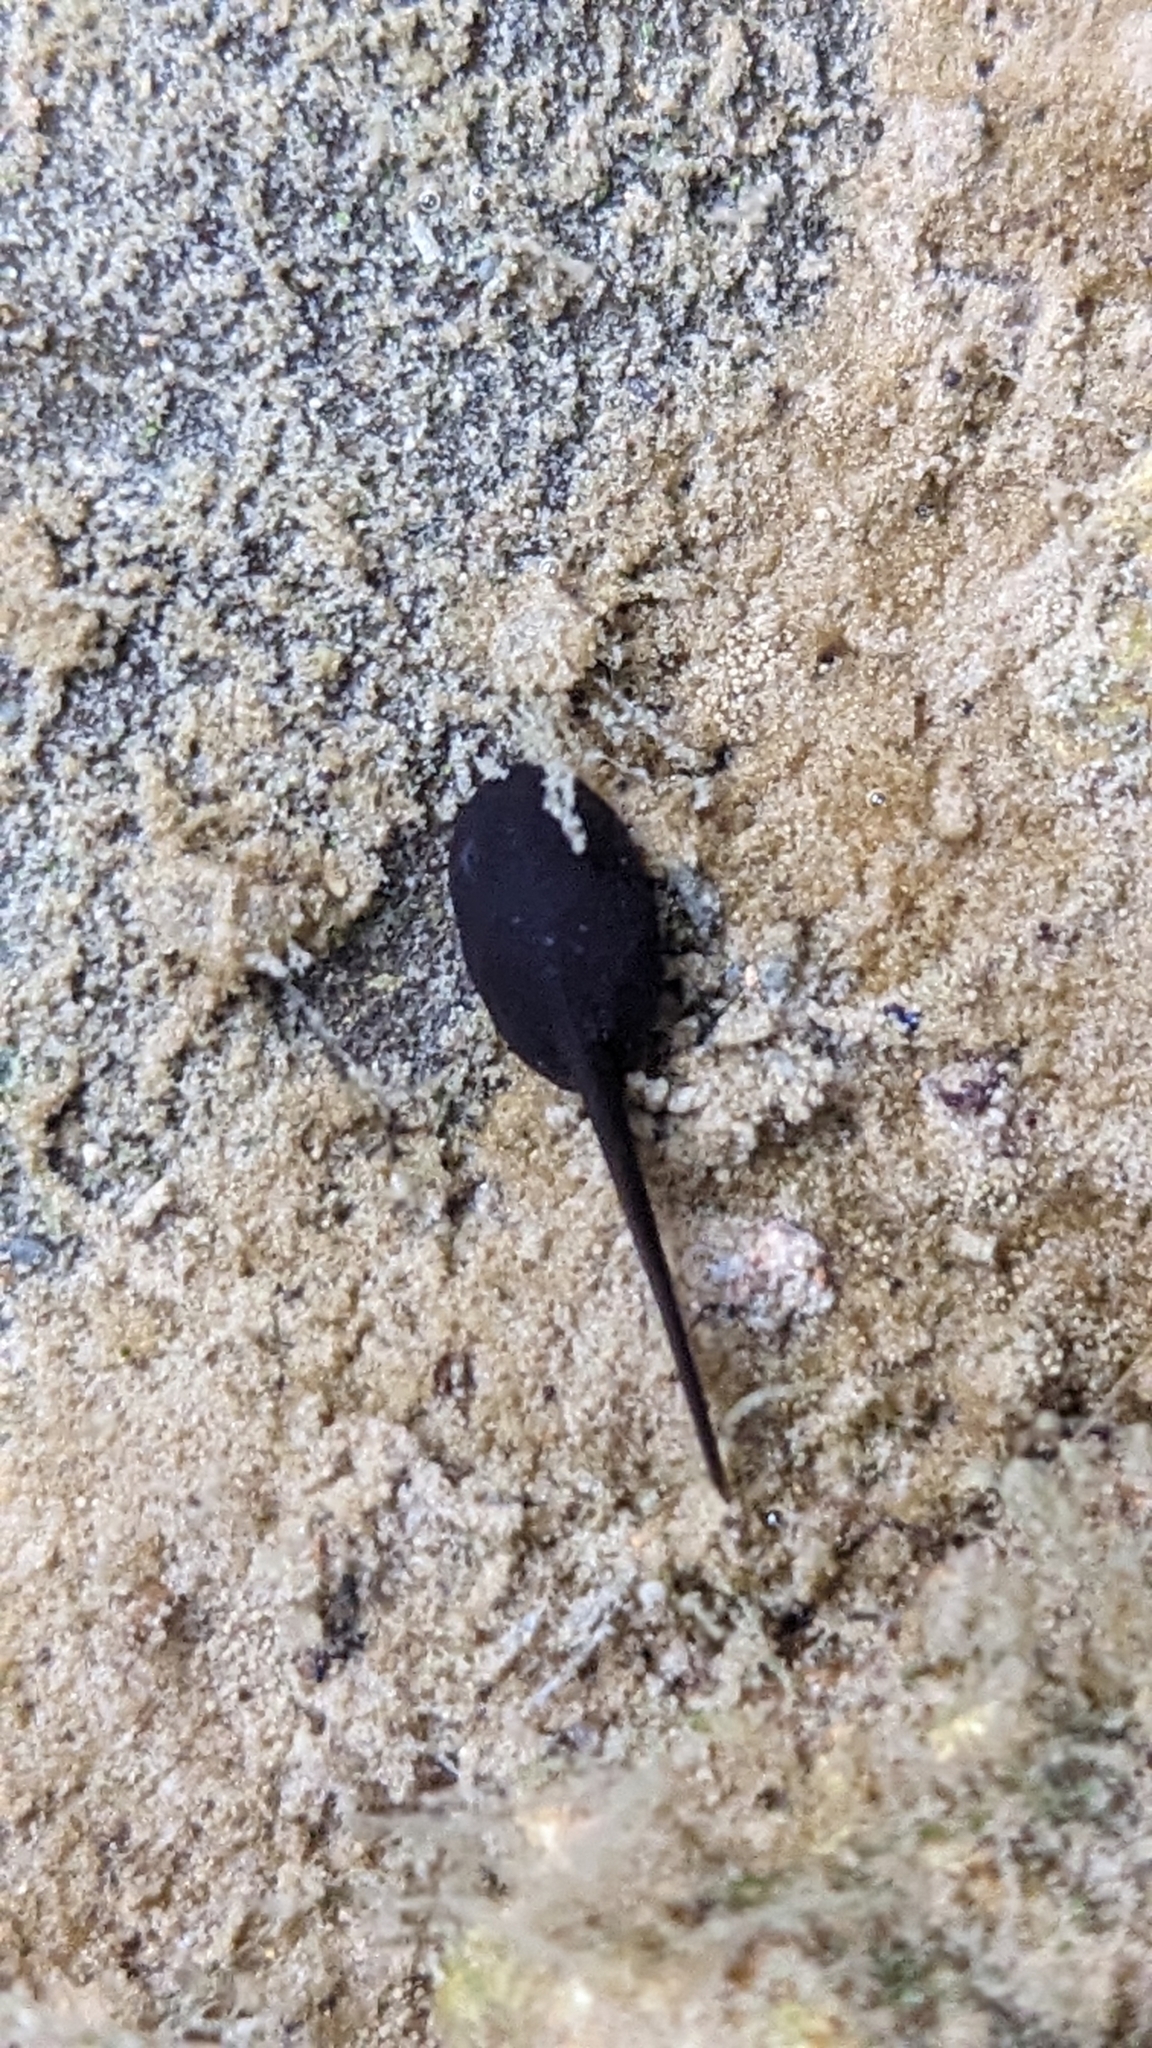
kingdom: Animalia
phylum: Chordata
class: Amphibia
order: Anura
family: Bufonidae
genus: Anaxyrus
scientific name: Anaxyrus boreas
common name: Western toad
